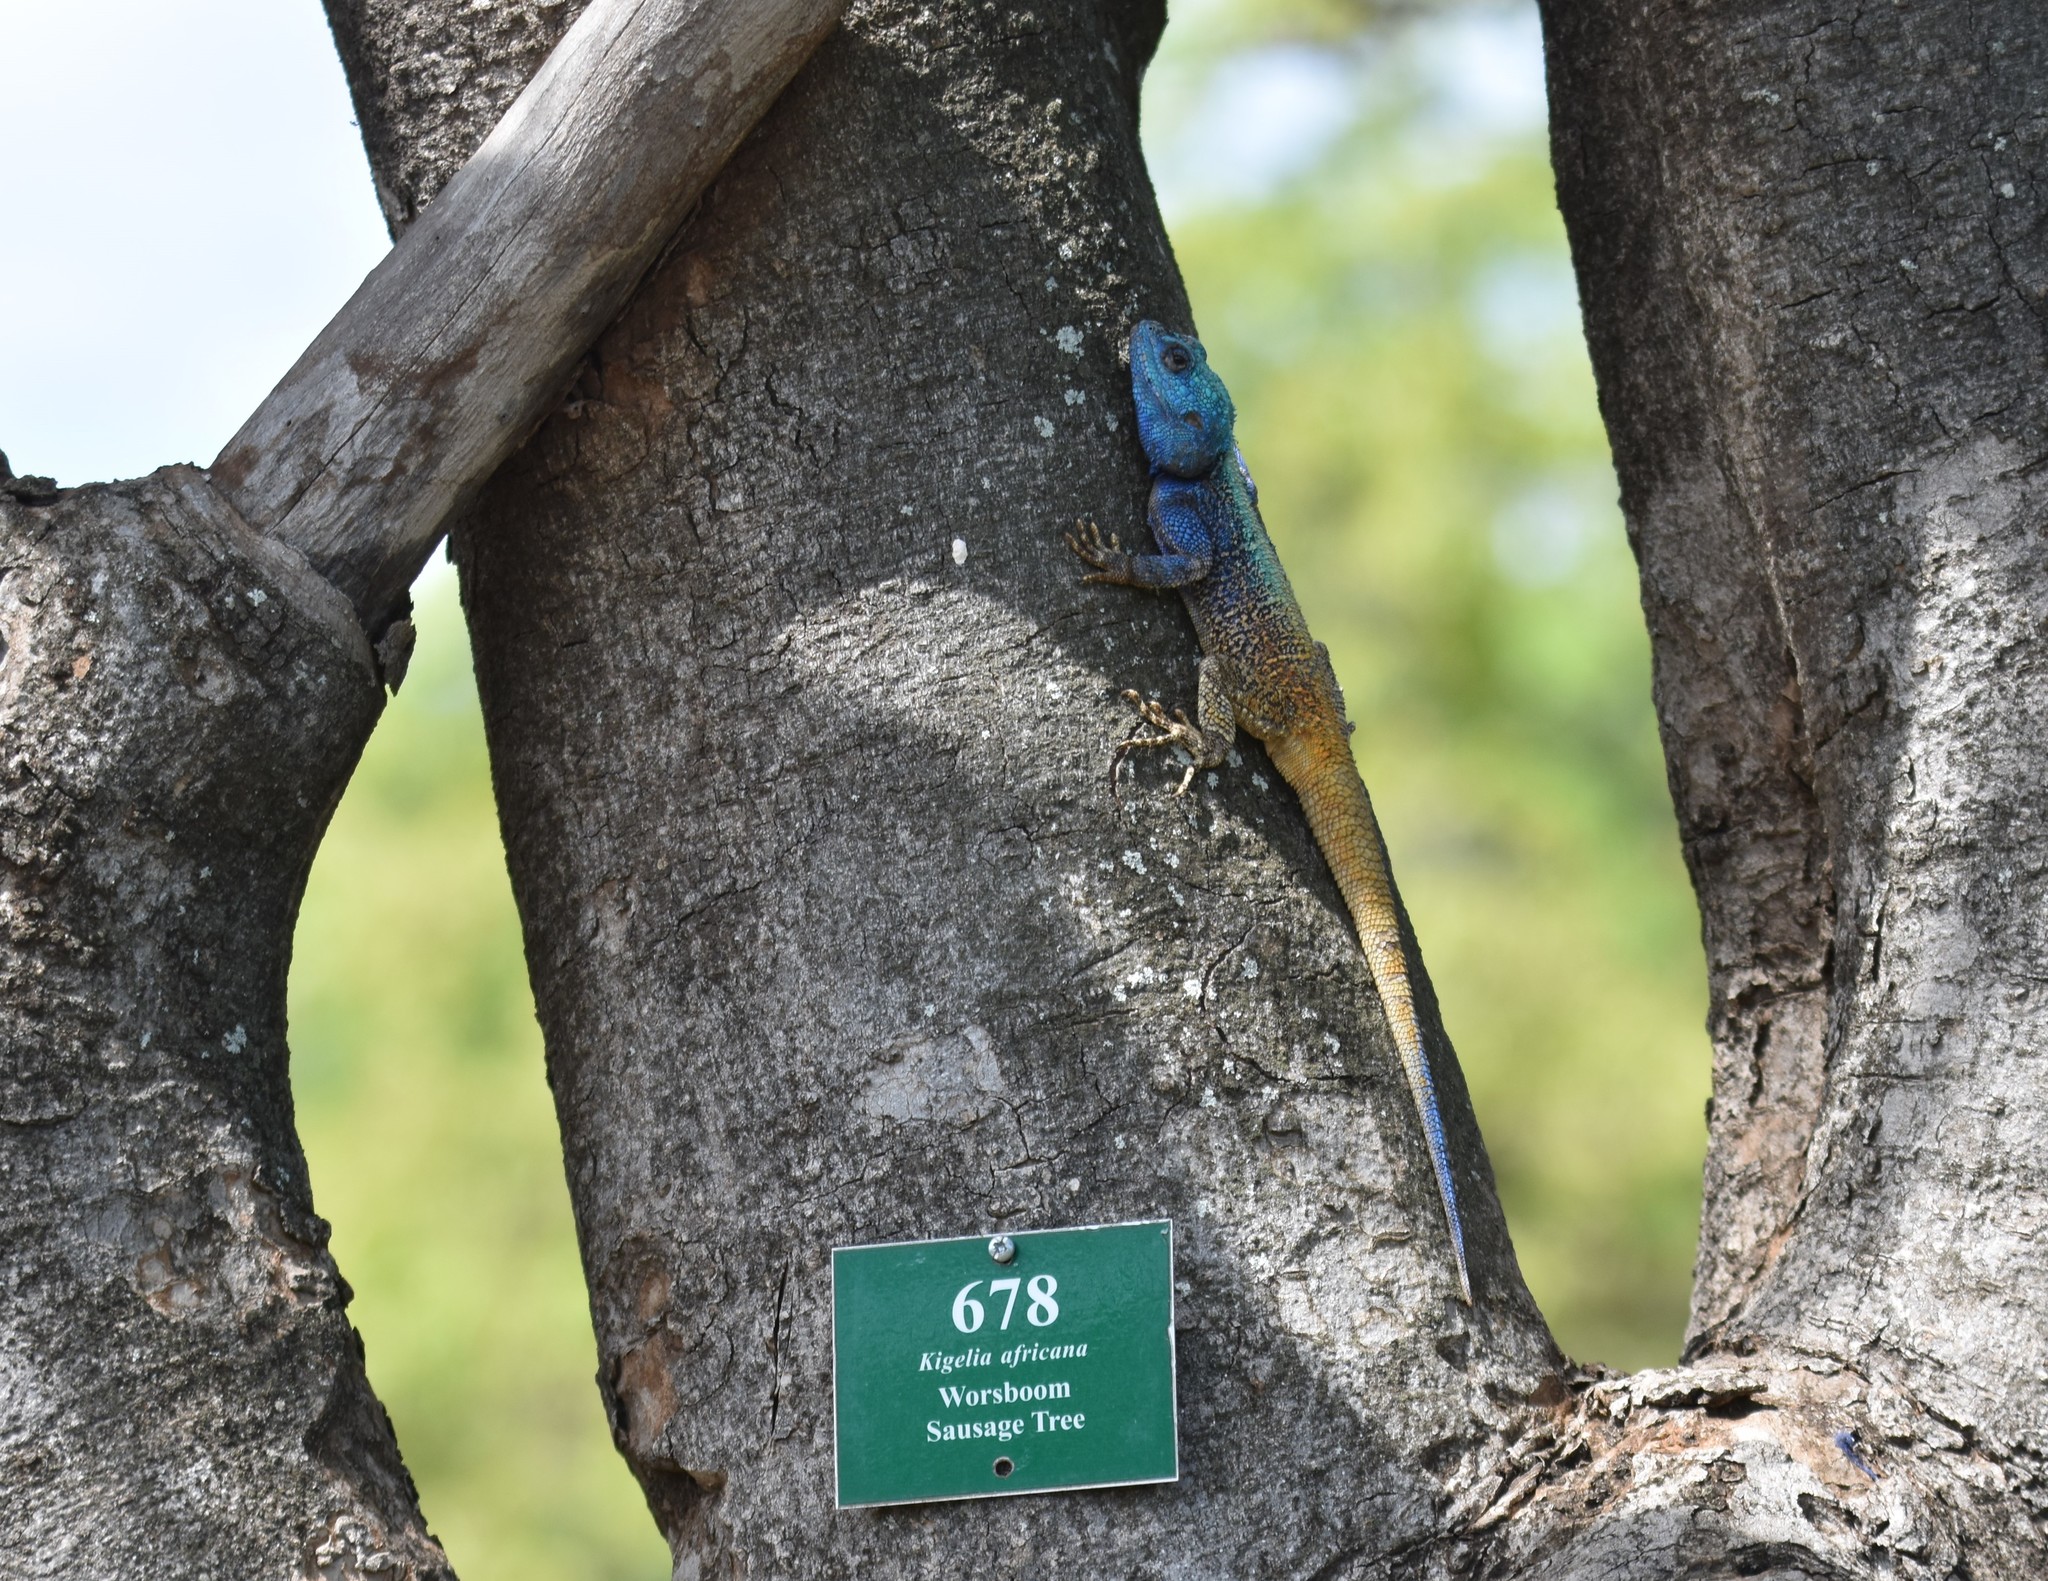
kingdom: Animalia
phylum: Chordata
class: Squamata
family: Agamidae
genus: Acanthocercus
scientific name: Acanthocercus atricollis
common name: Southern tree agama
